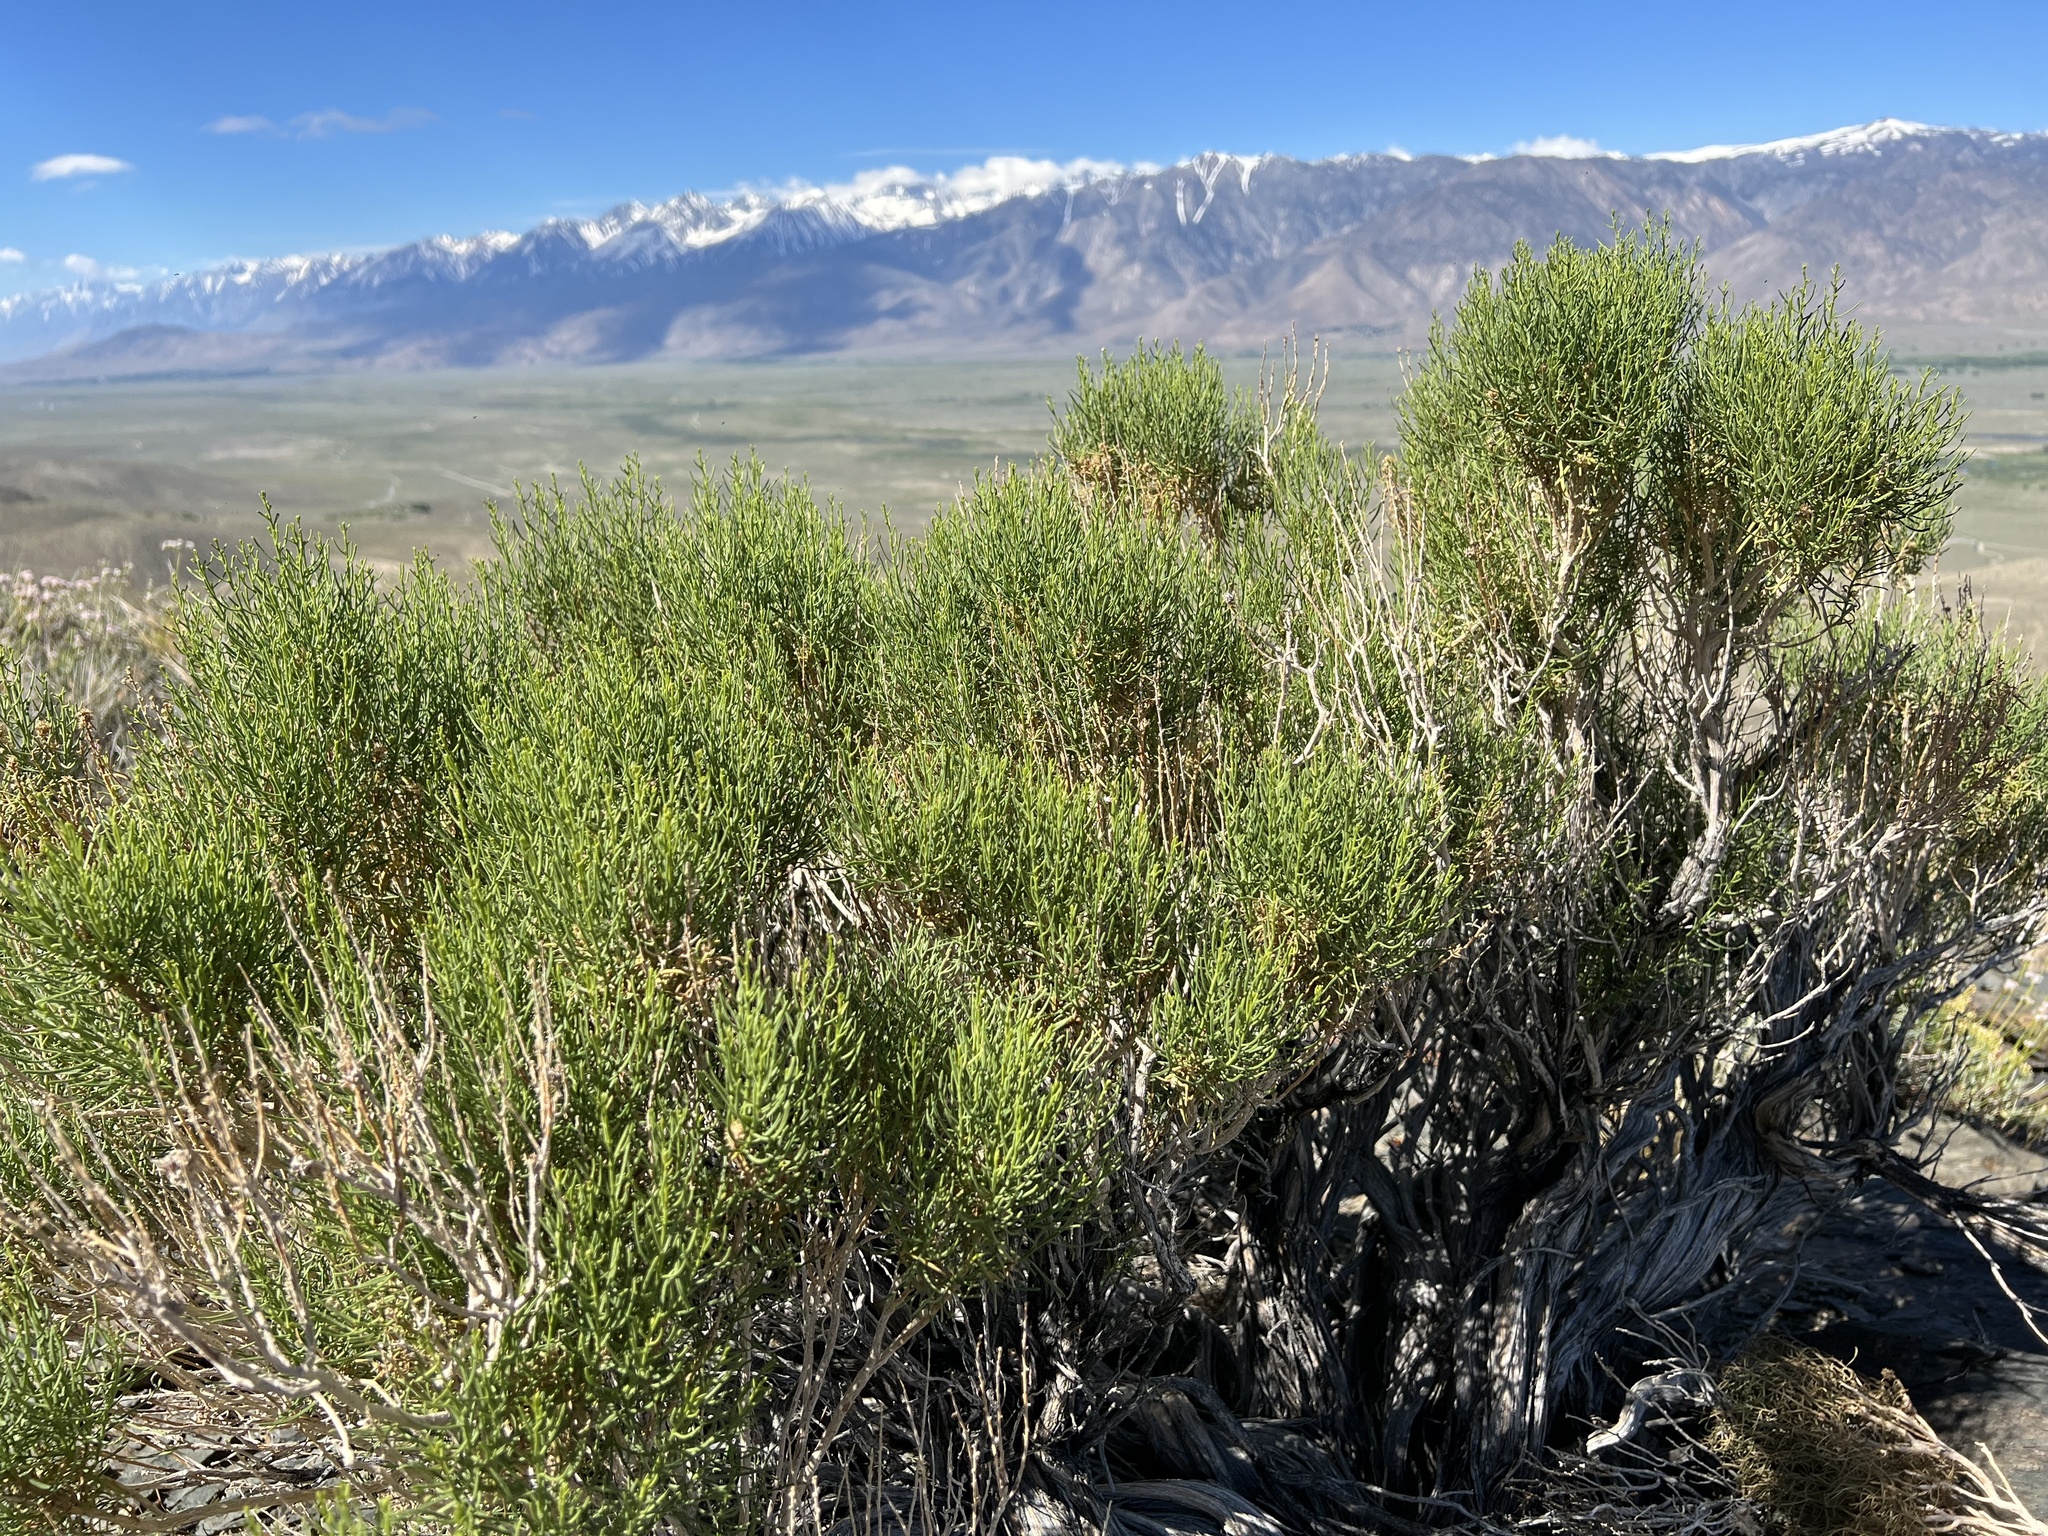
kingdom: Plantae
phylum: Tracheophyta
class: Magnoliopsida
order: Asterales
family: Asteraceae
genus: Ericameria
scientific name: Ericameria teretifolia
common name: Round-leaf rabbitbrush
